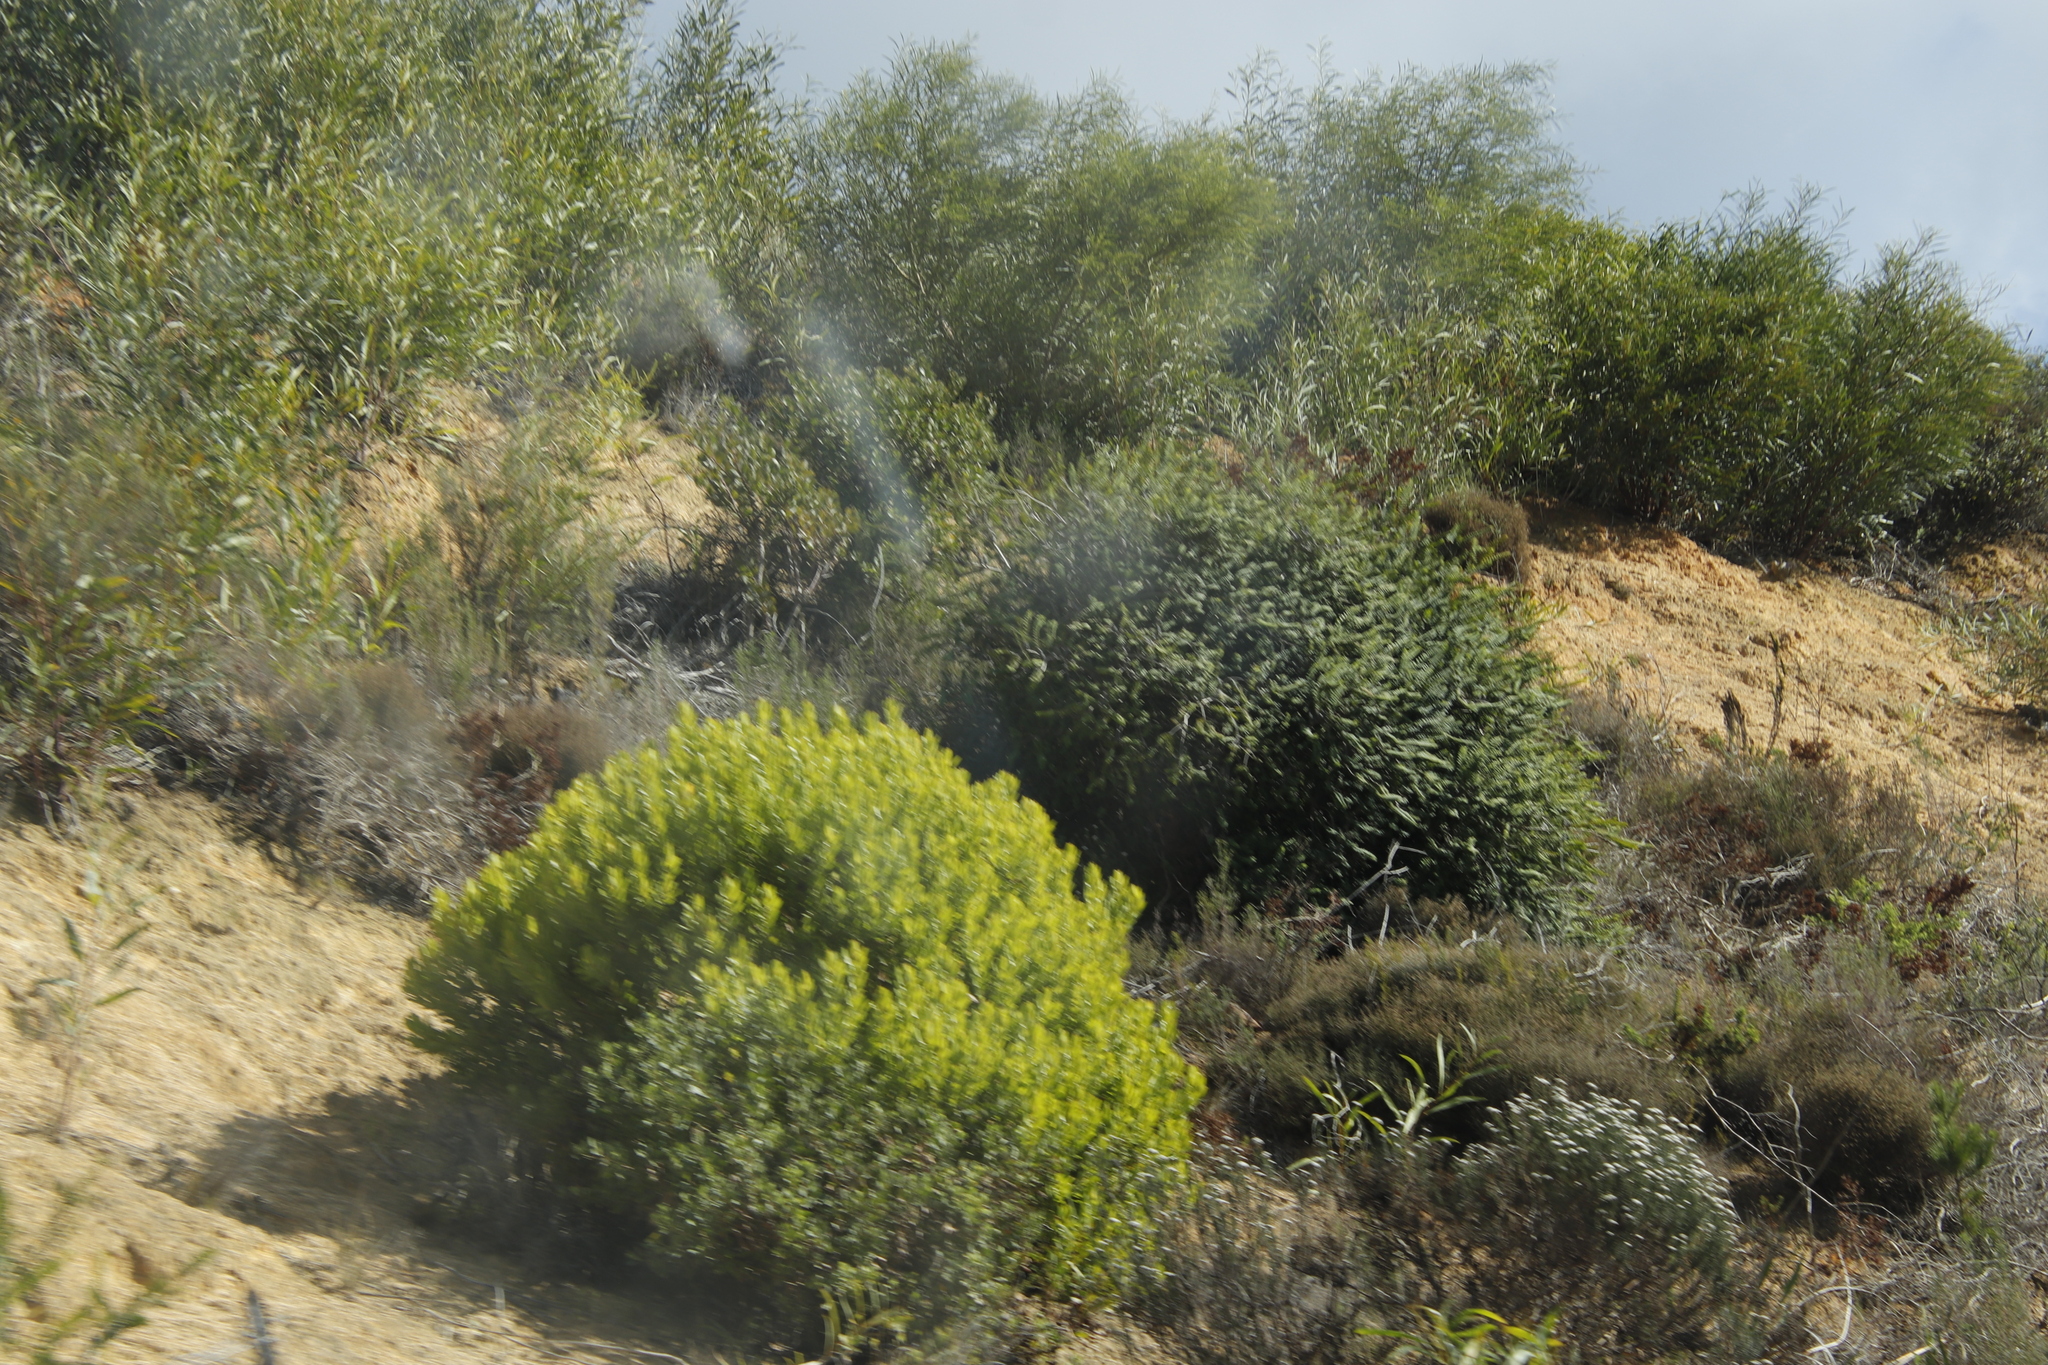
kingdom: Plantae
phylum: Tracheophyta
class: Magnoliopsida
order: Myrtales
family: Myrtaceae
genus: Melaleuca
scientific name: Melaleuca hypericifolia
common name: Red honey myrtle
